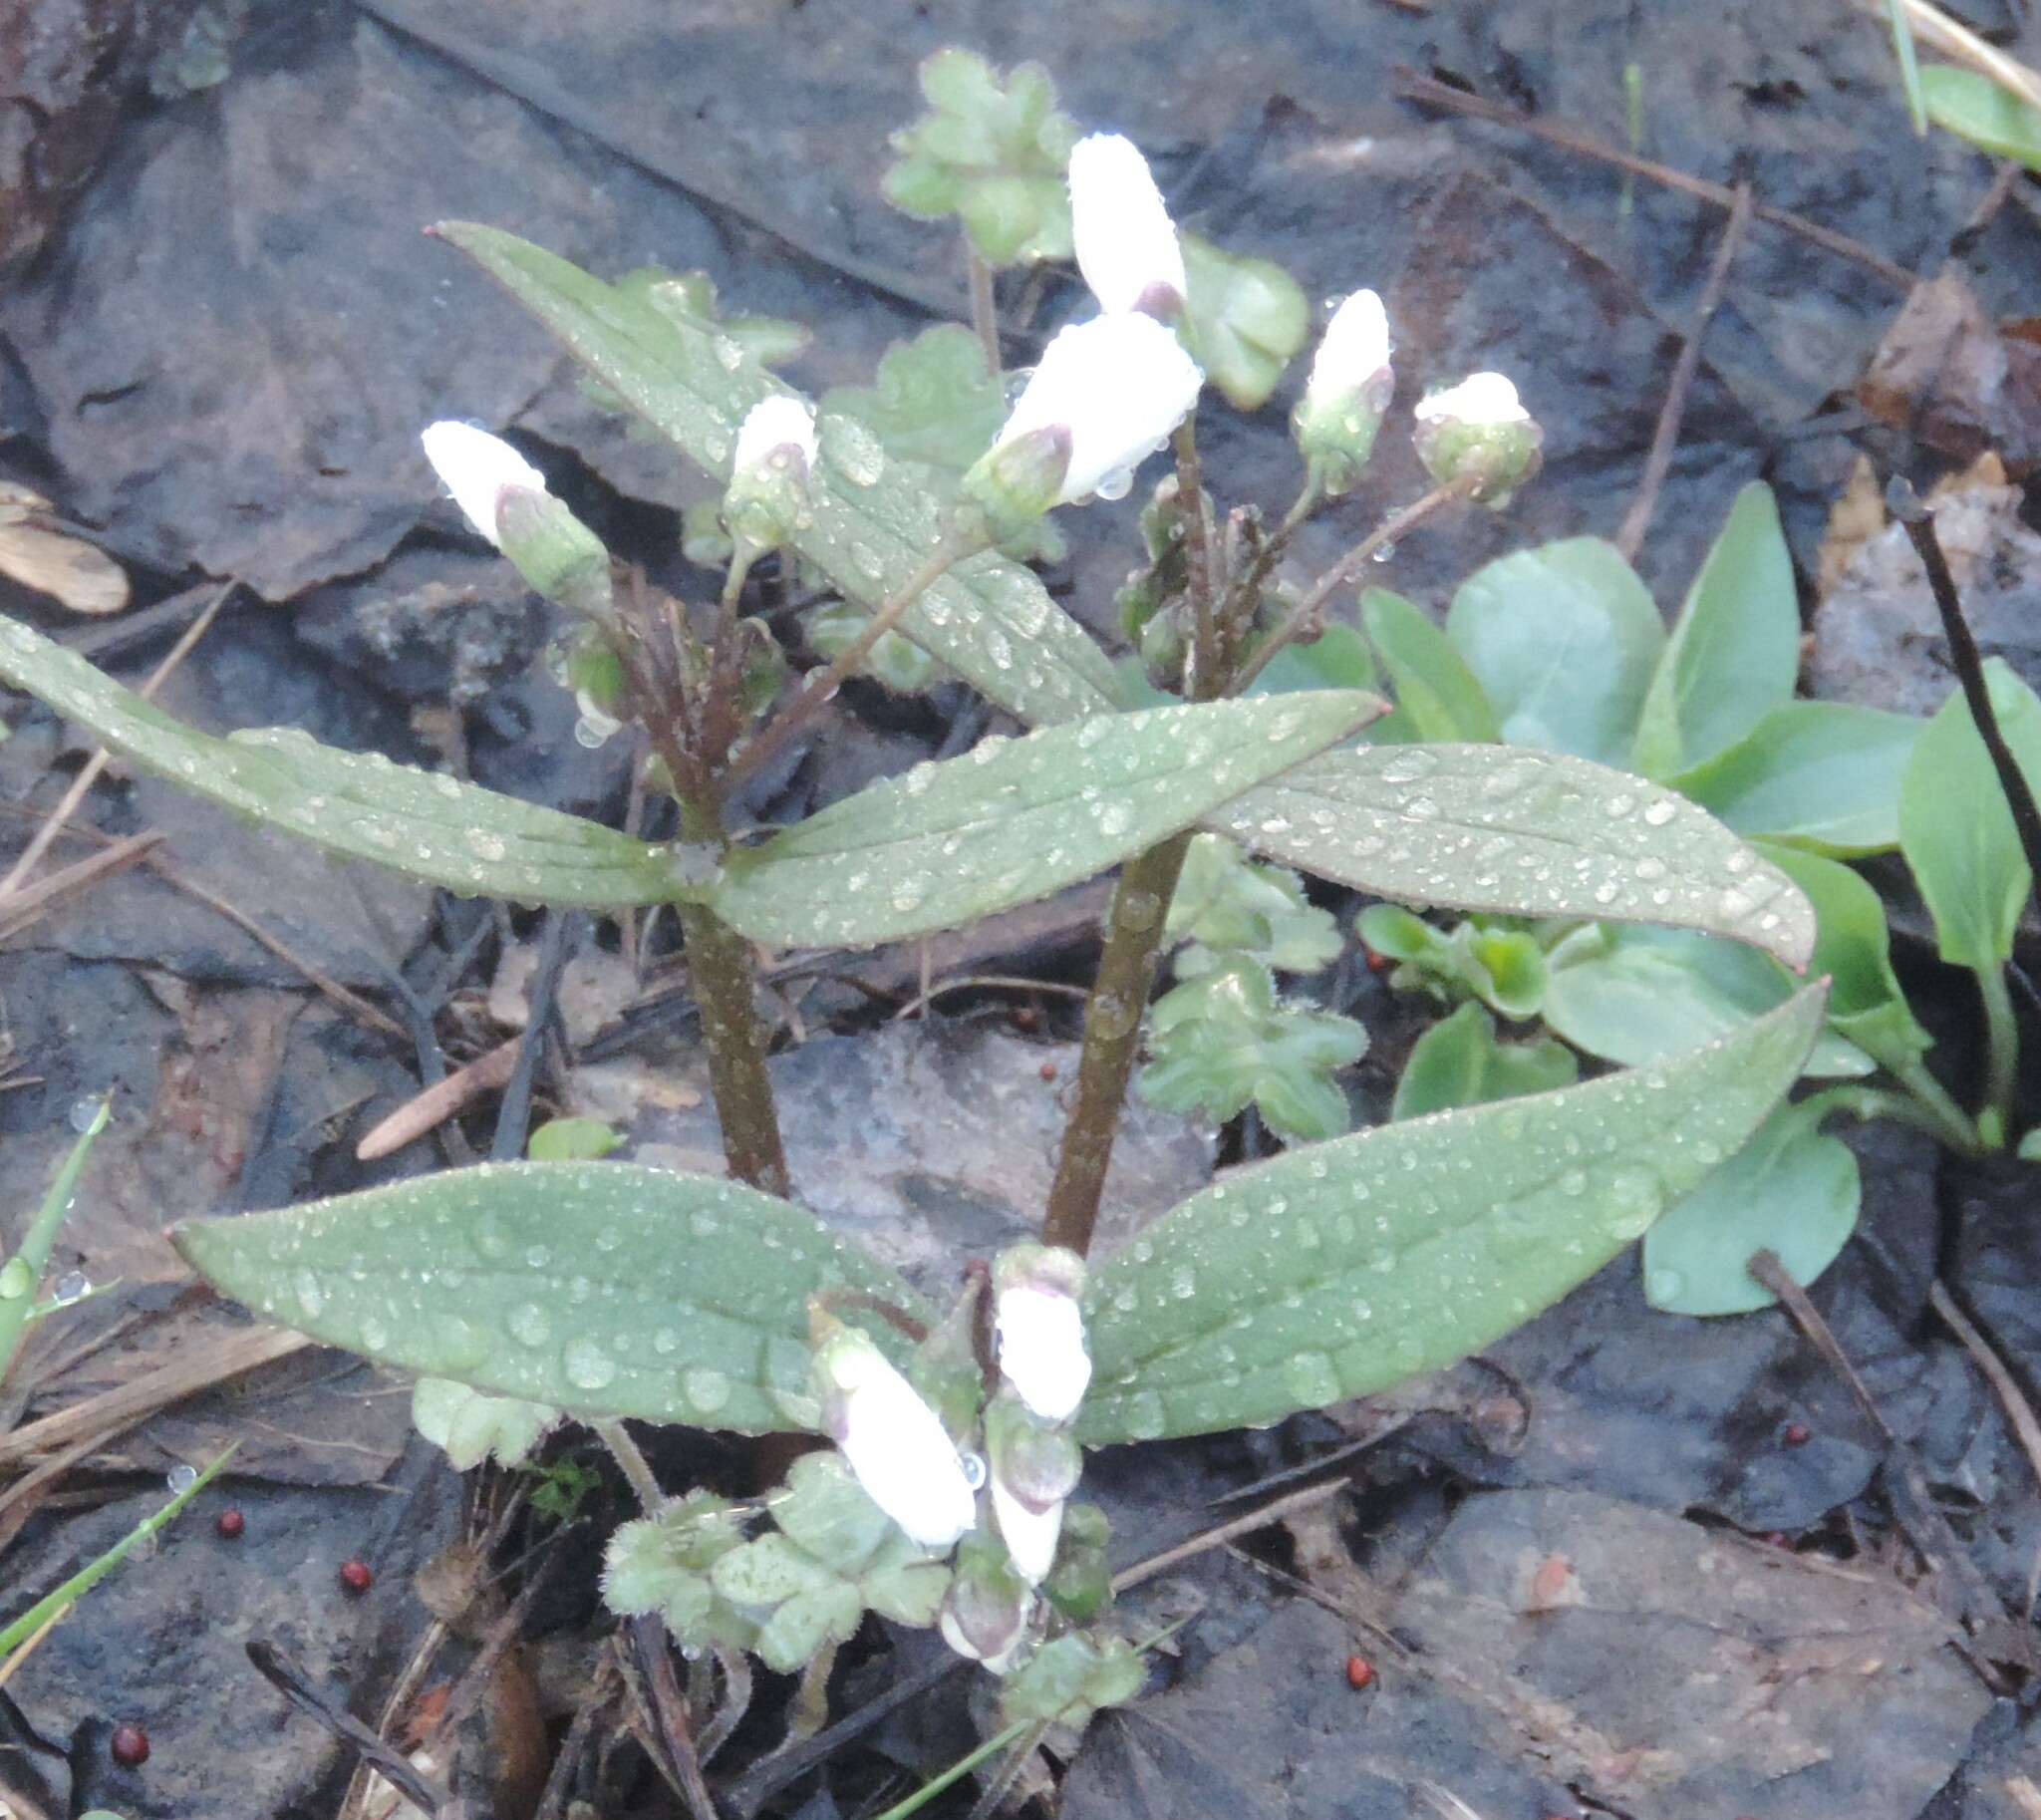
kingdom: Plantae
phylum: Tracheophyta
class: Magnoliopsida
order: Caryophyllales
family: Montiaceae
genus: Claytonia
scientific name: Claytonia lanceolata
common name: Western spring-beauty
